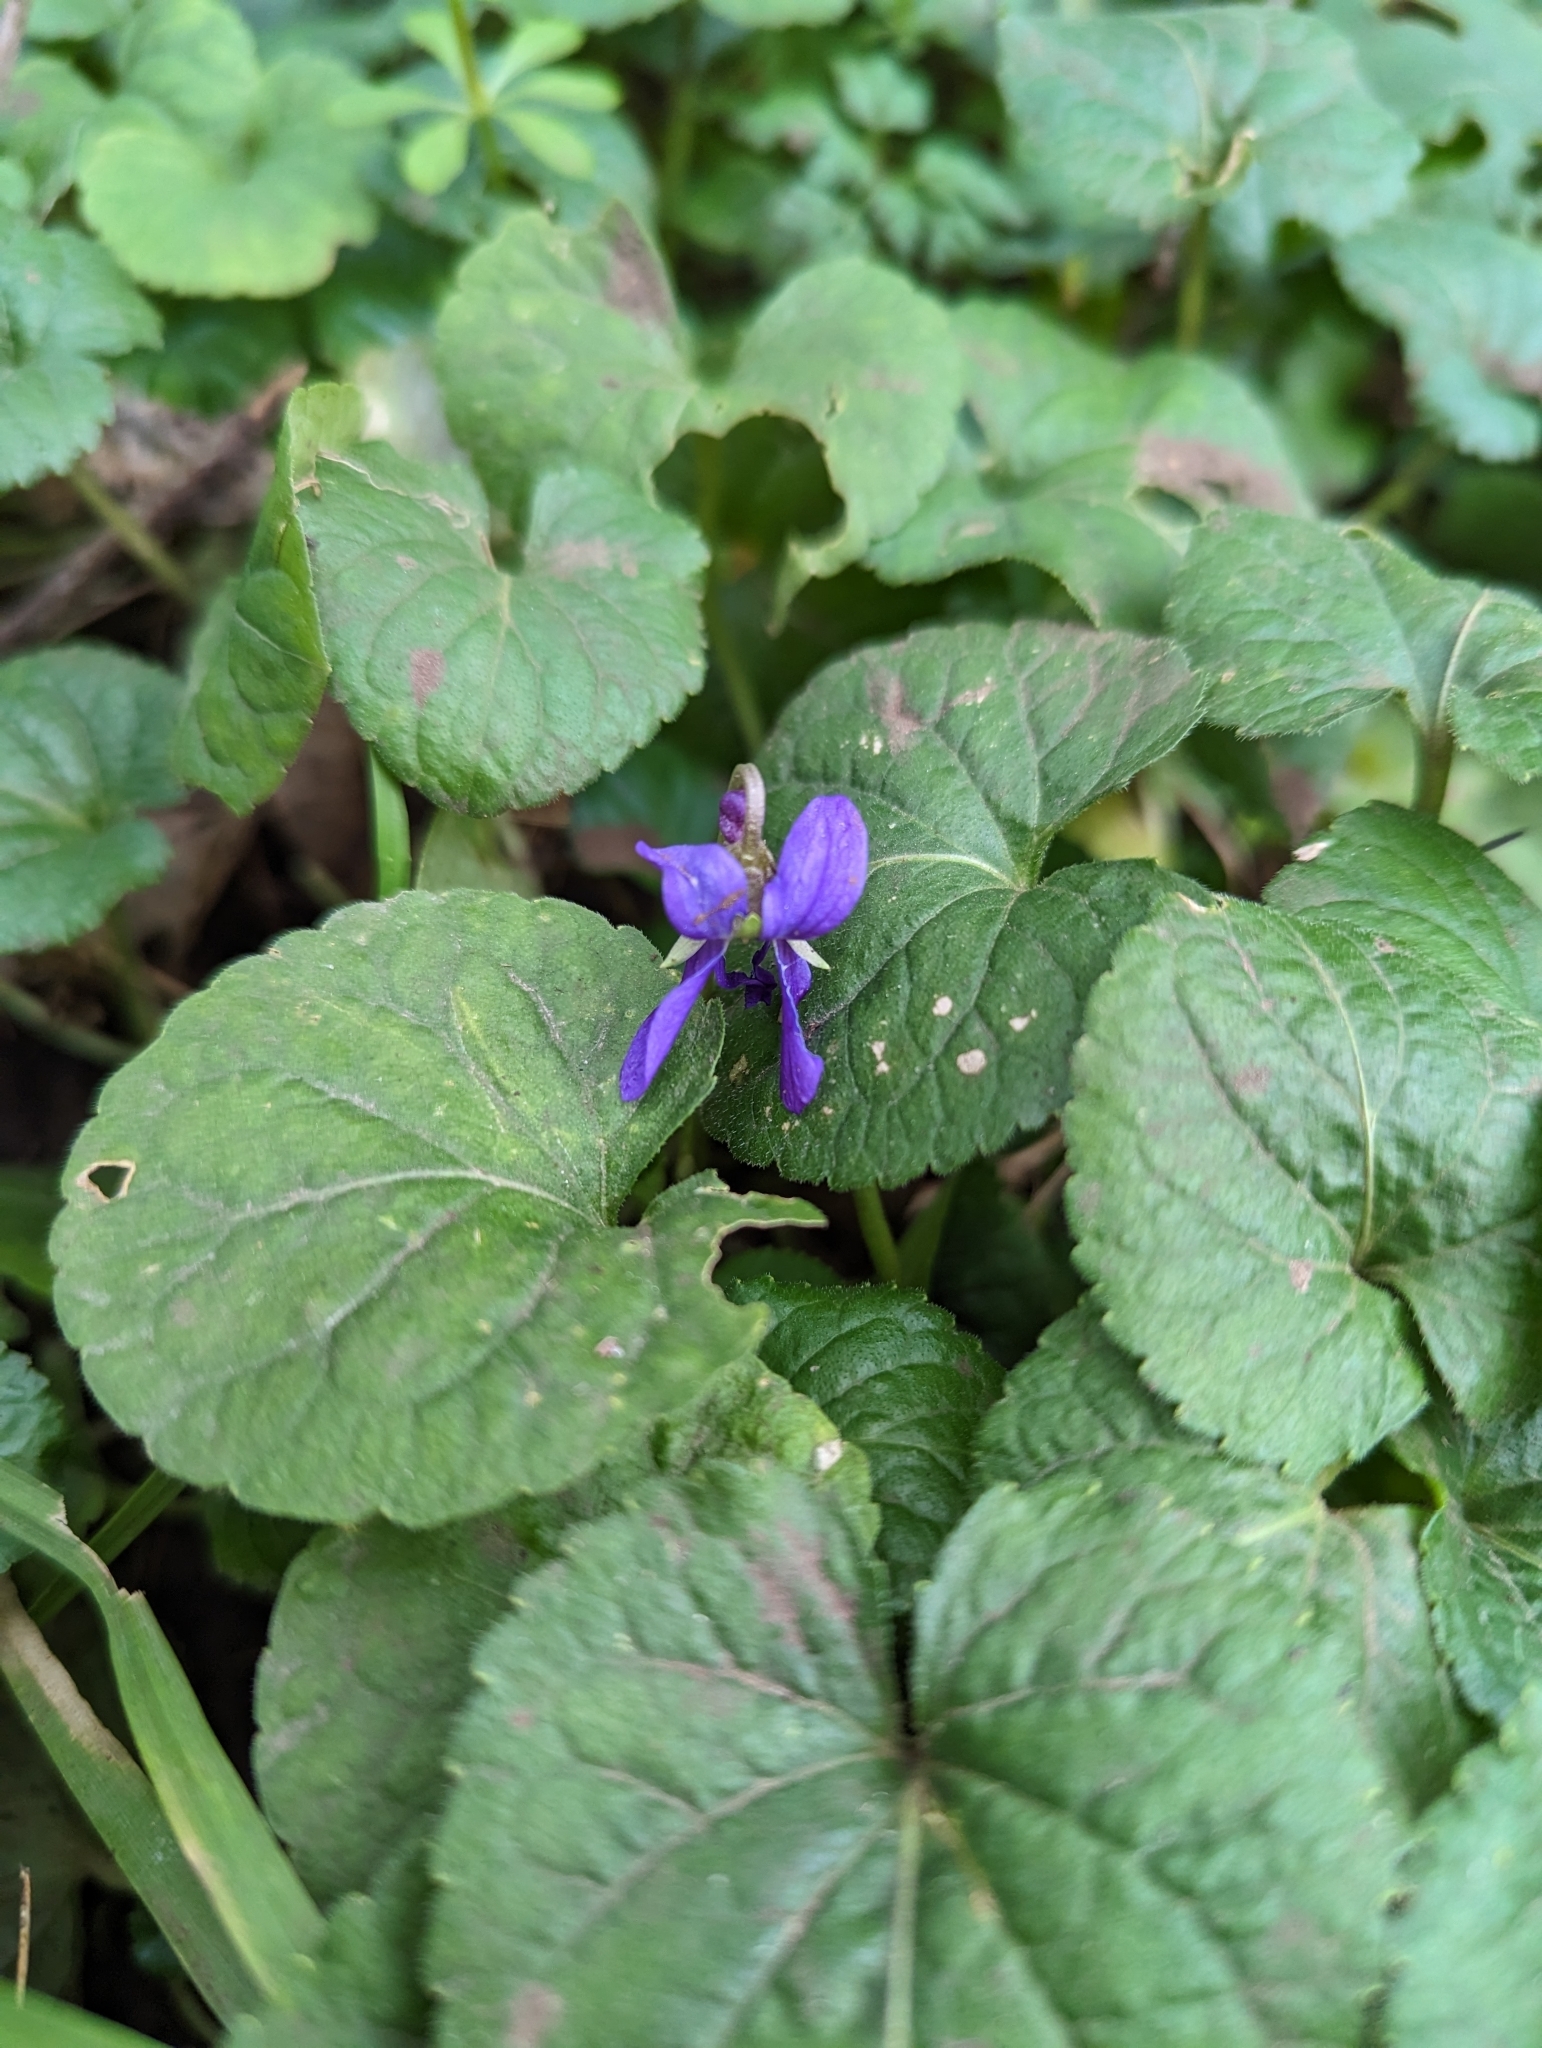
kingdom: Plantae
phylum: Tracheophyta
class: Magnoliopsida
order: Malpighiales
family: Violaceae
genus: Viola
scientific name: Viola odorata
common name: Sweet violet
